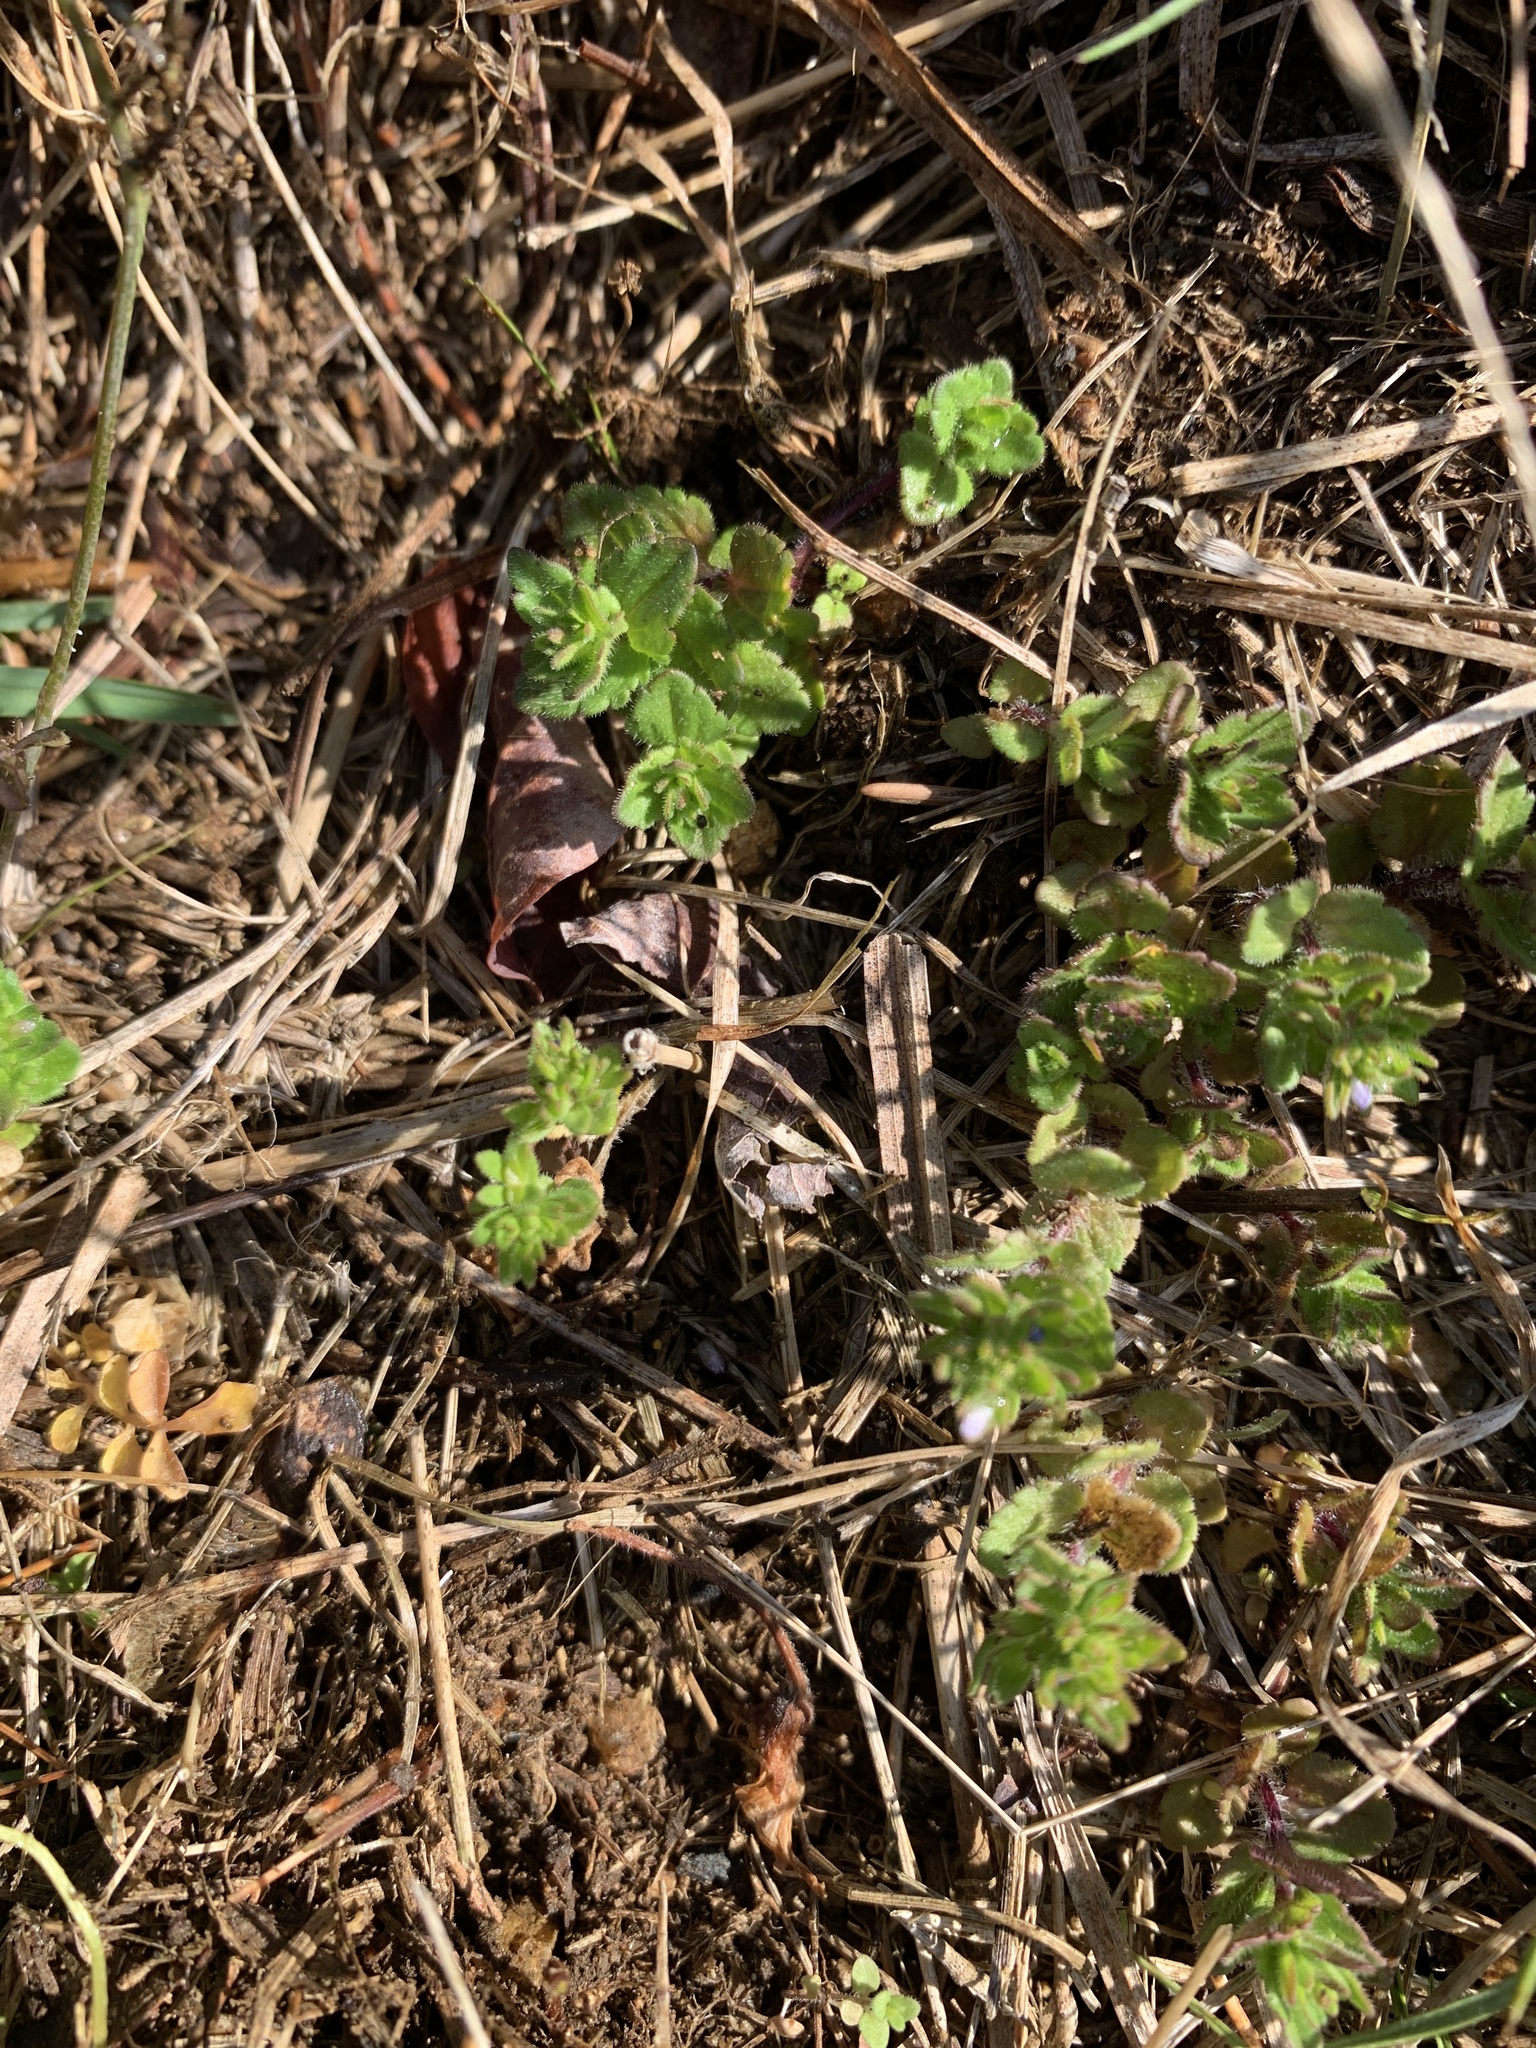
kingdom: Plantae
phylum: Tracheophyta
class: Magnoliopsida
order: Lamiales
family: Plantaginaceae
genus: Veronica
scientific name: Veronica arvensis
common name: Corn speedwell
